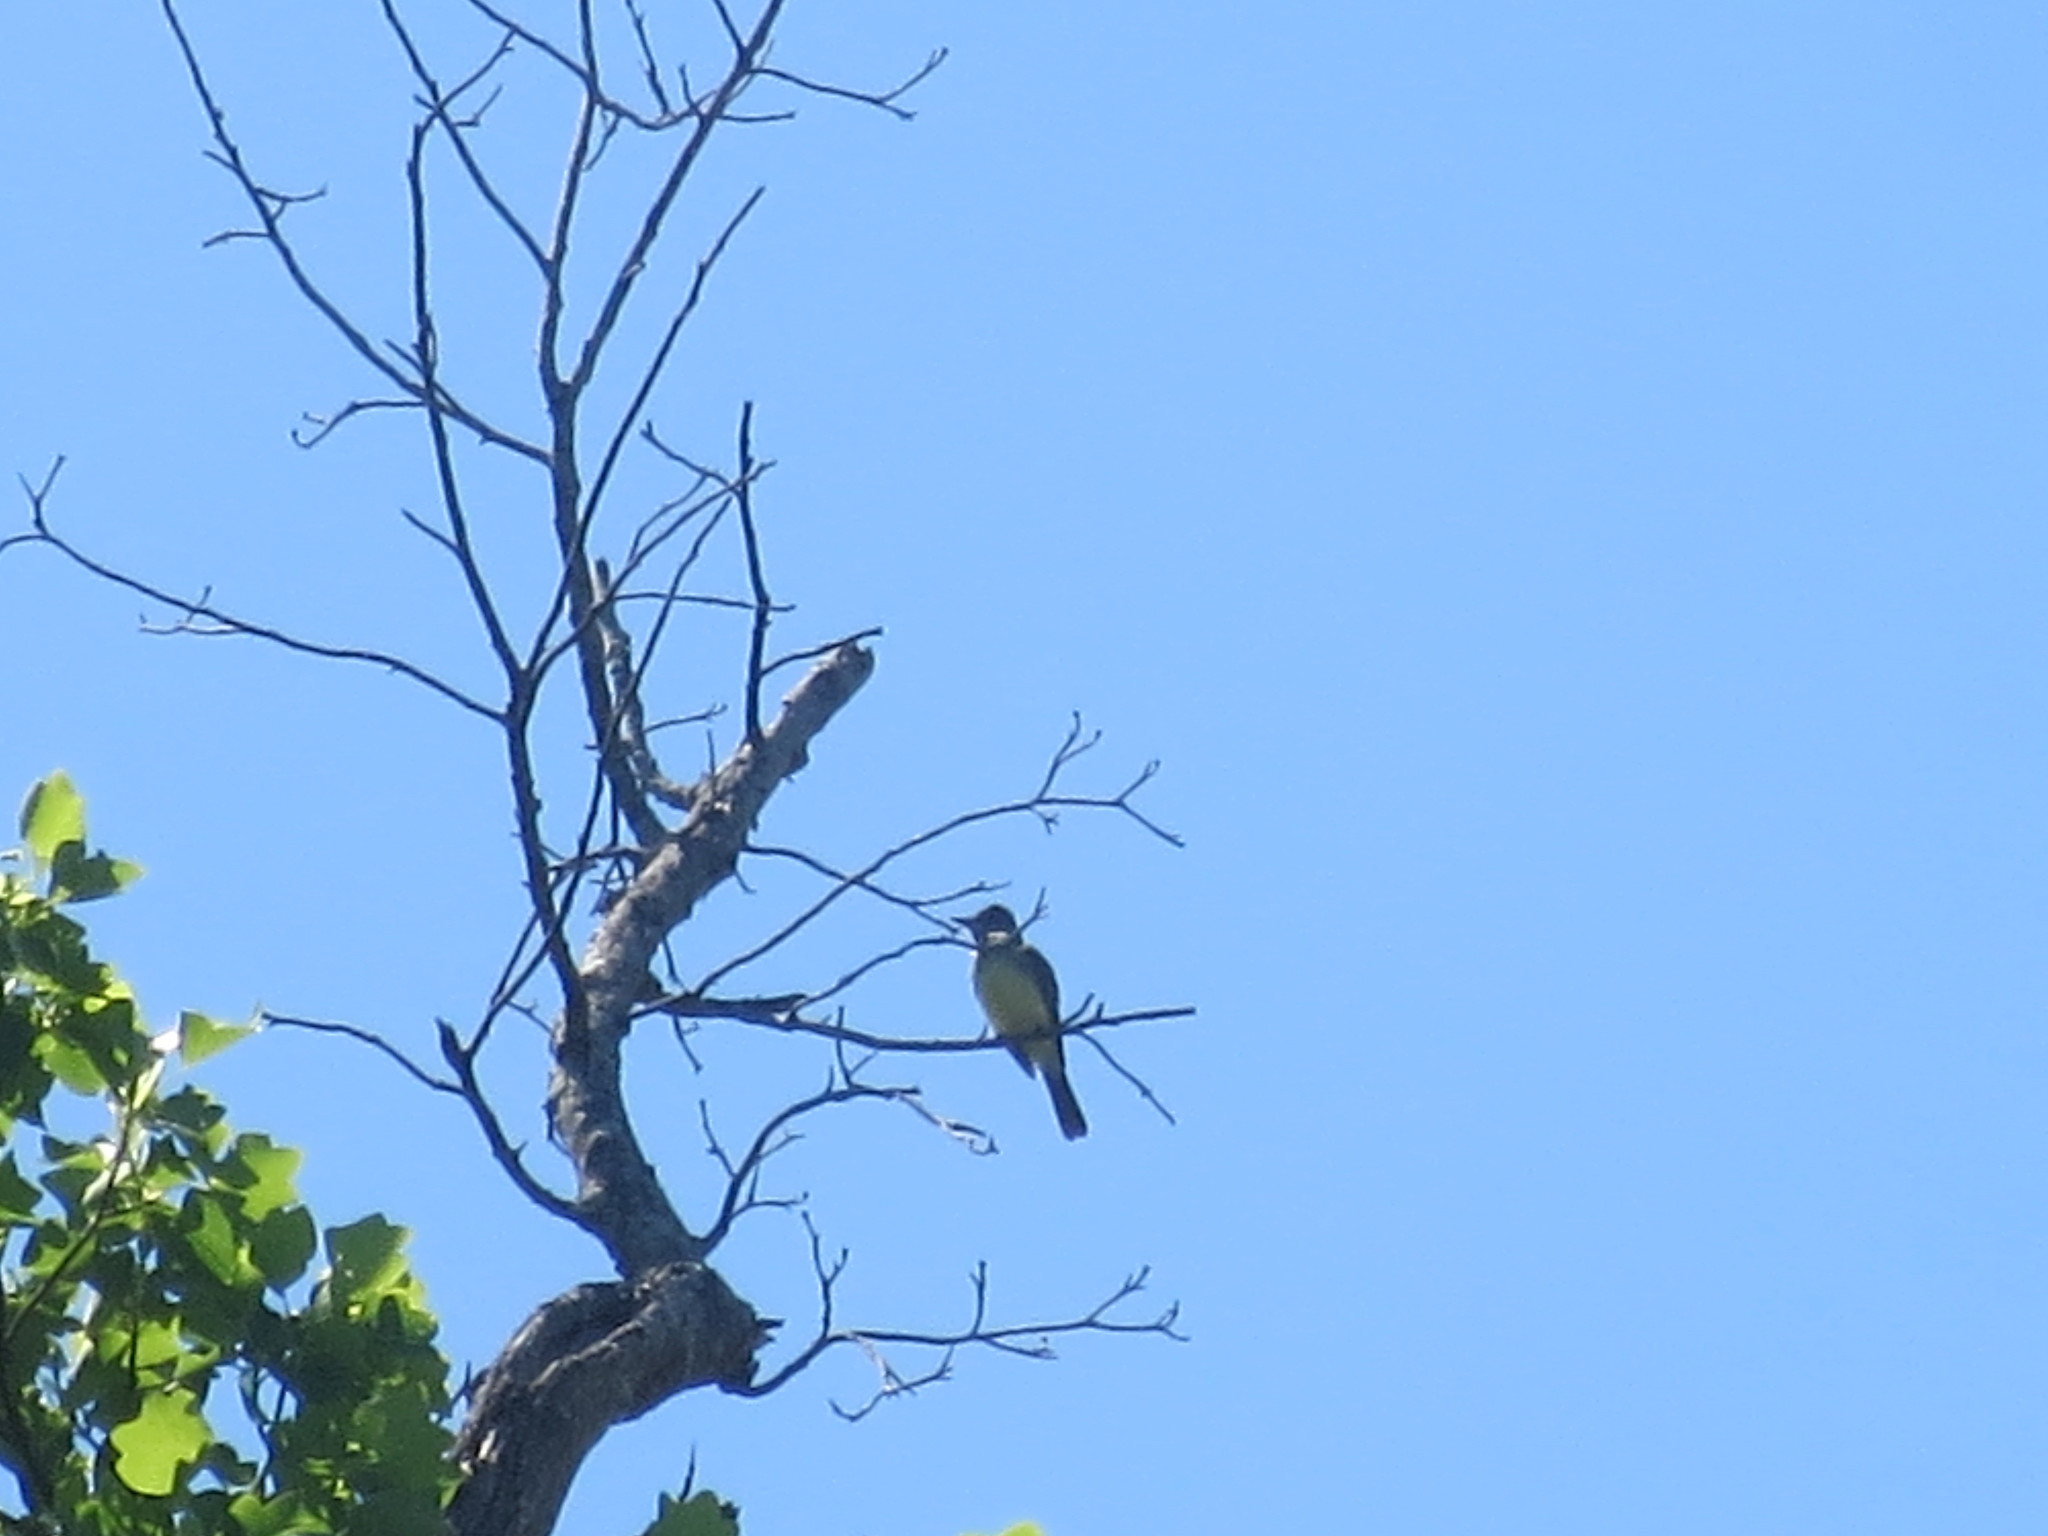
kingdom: Animalia
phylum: Chordata
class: Aves
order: Passeriformes
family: Tyrannidae
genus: Myiarchus
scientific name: Myiarchus crinitus
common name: Great crested flycatcher
